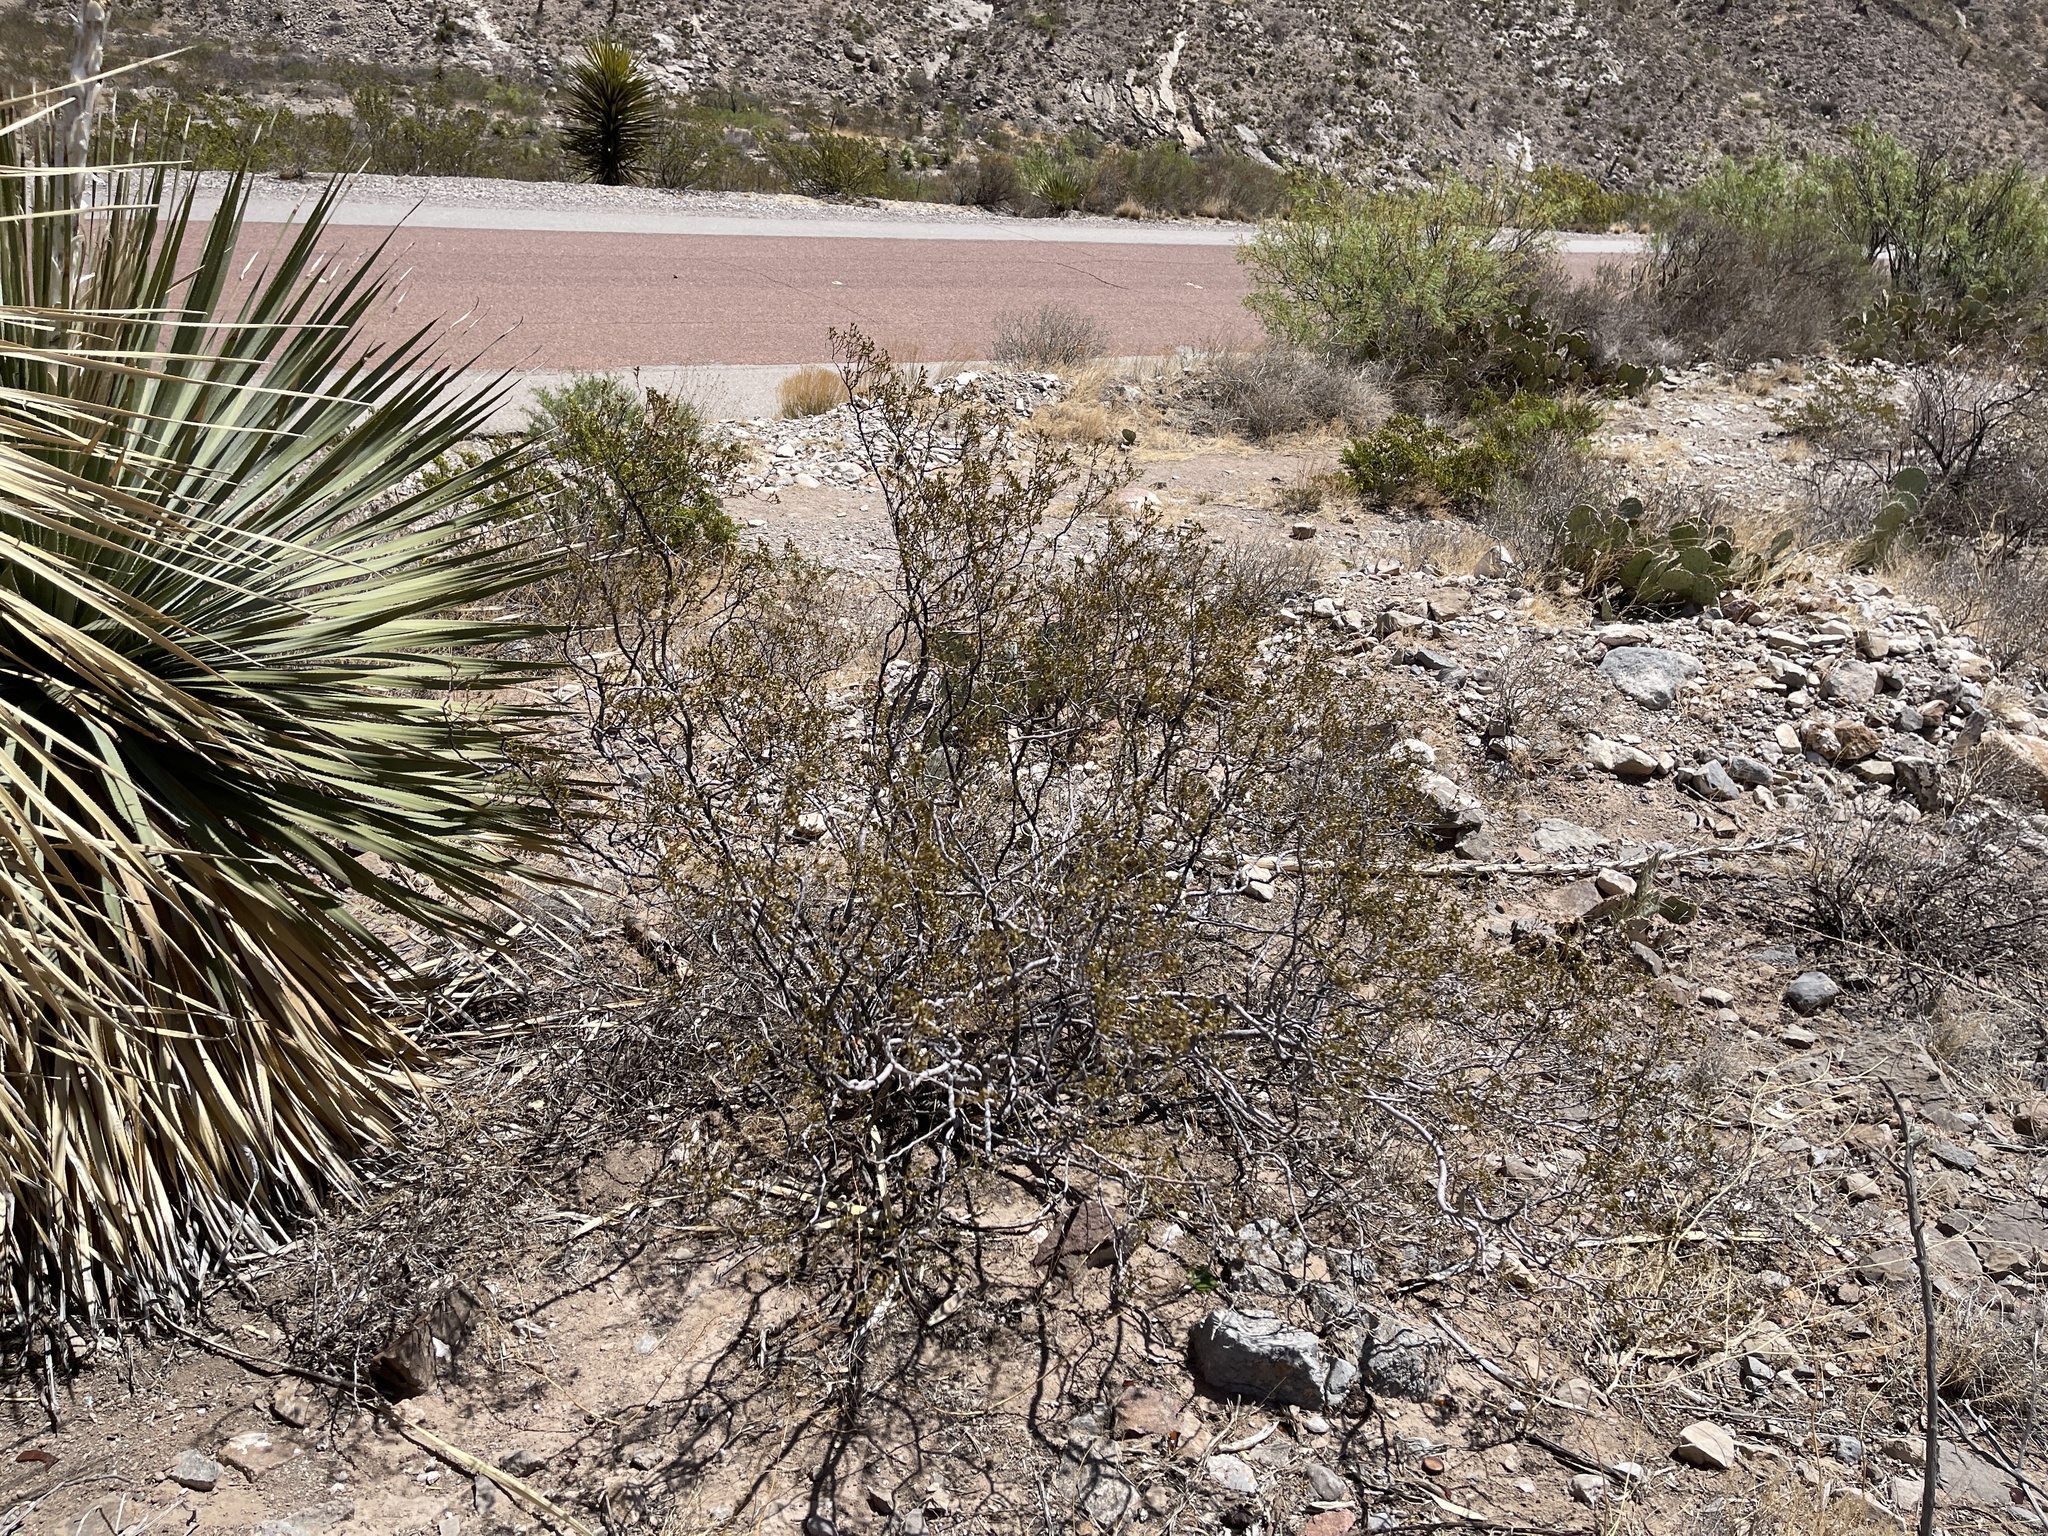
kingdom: Plantae
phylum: Tracheophyta
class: Magnoliopsida
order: Zygophyllales
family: Zygophyllaceae
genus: Larrea
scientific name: Larrea tridentata
